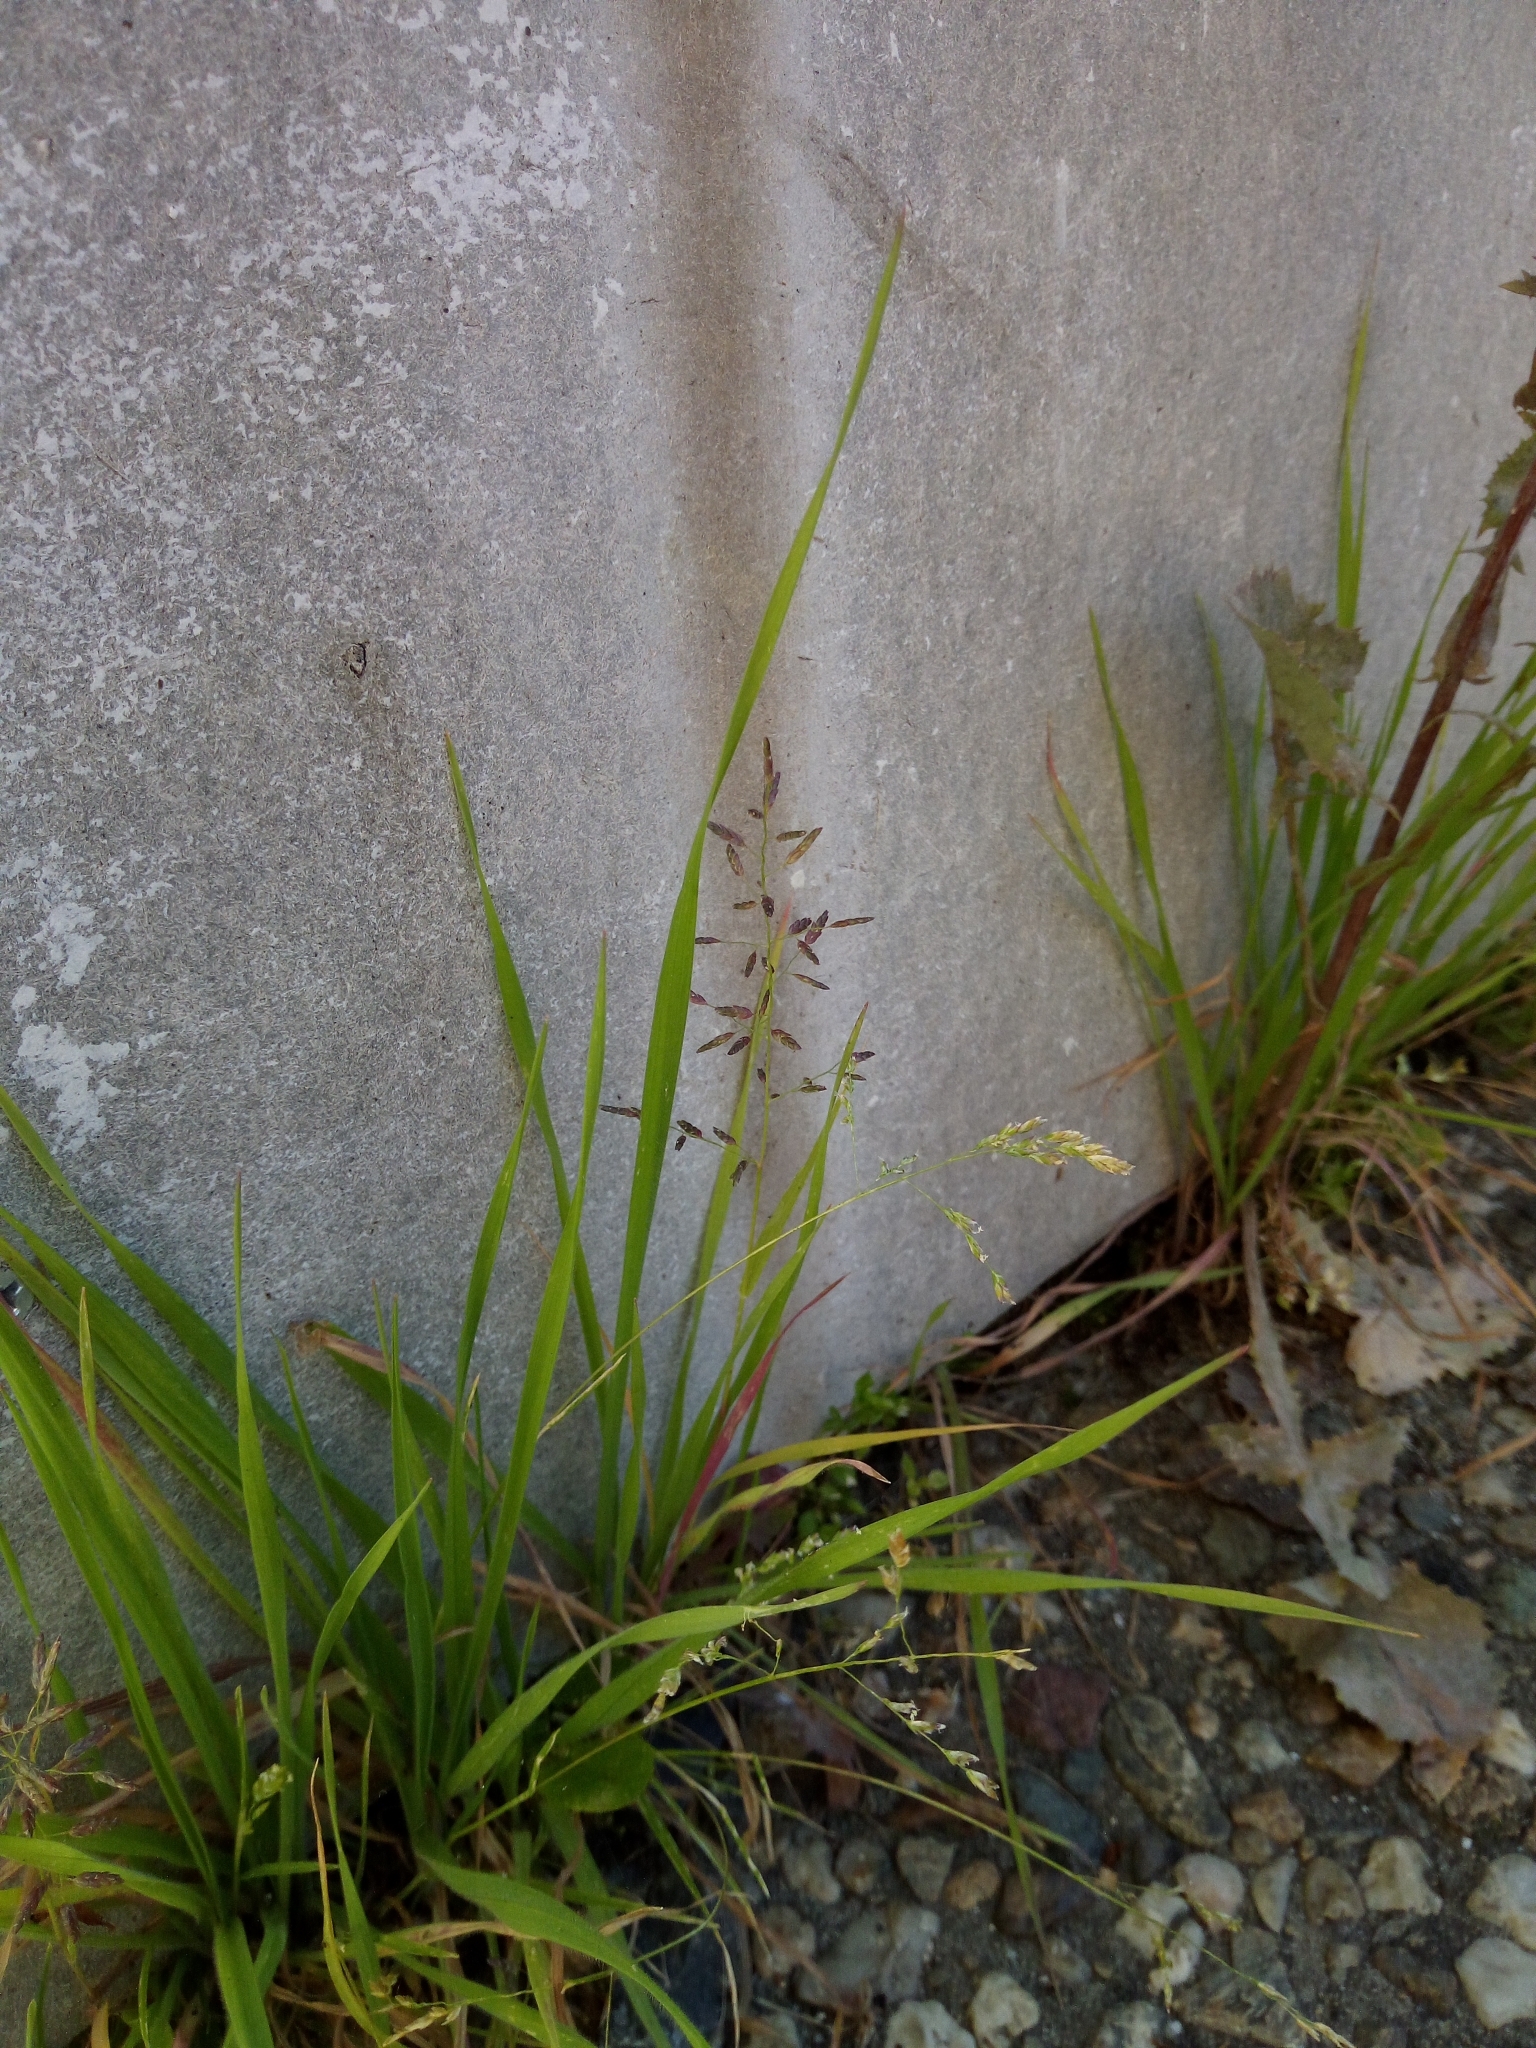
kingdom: Plantae
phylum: Tracheophyta
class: Liliopsida
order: Poales
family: Poaceae
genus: Eragrostis
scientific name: Eragrostis minor
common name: Small love-grass
